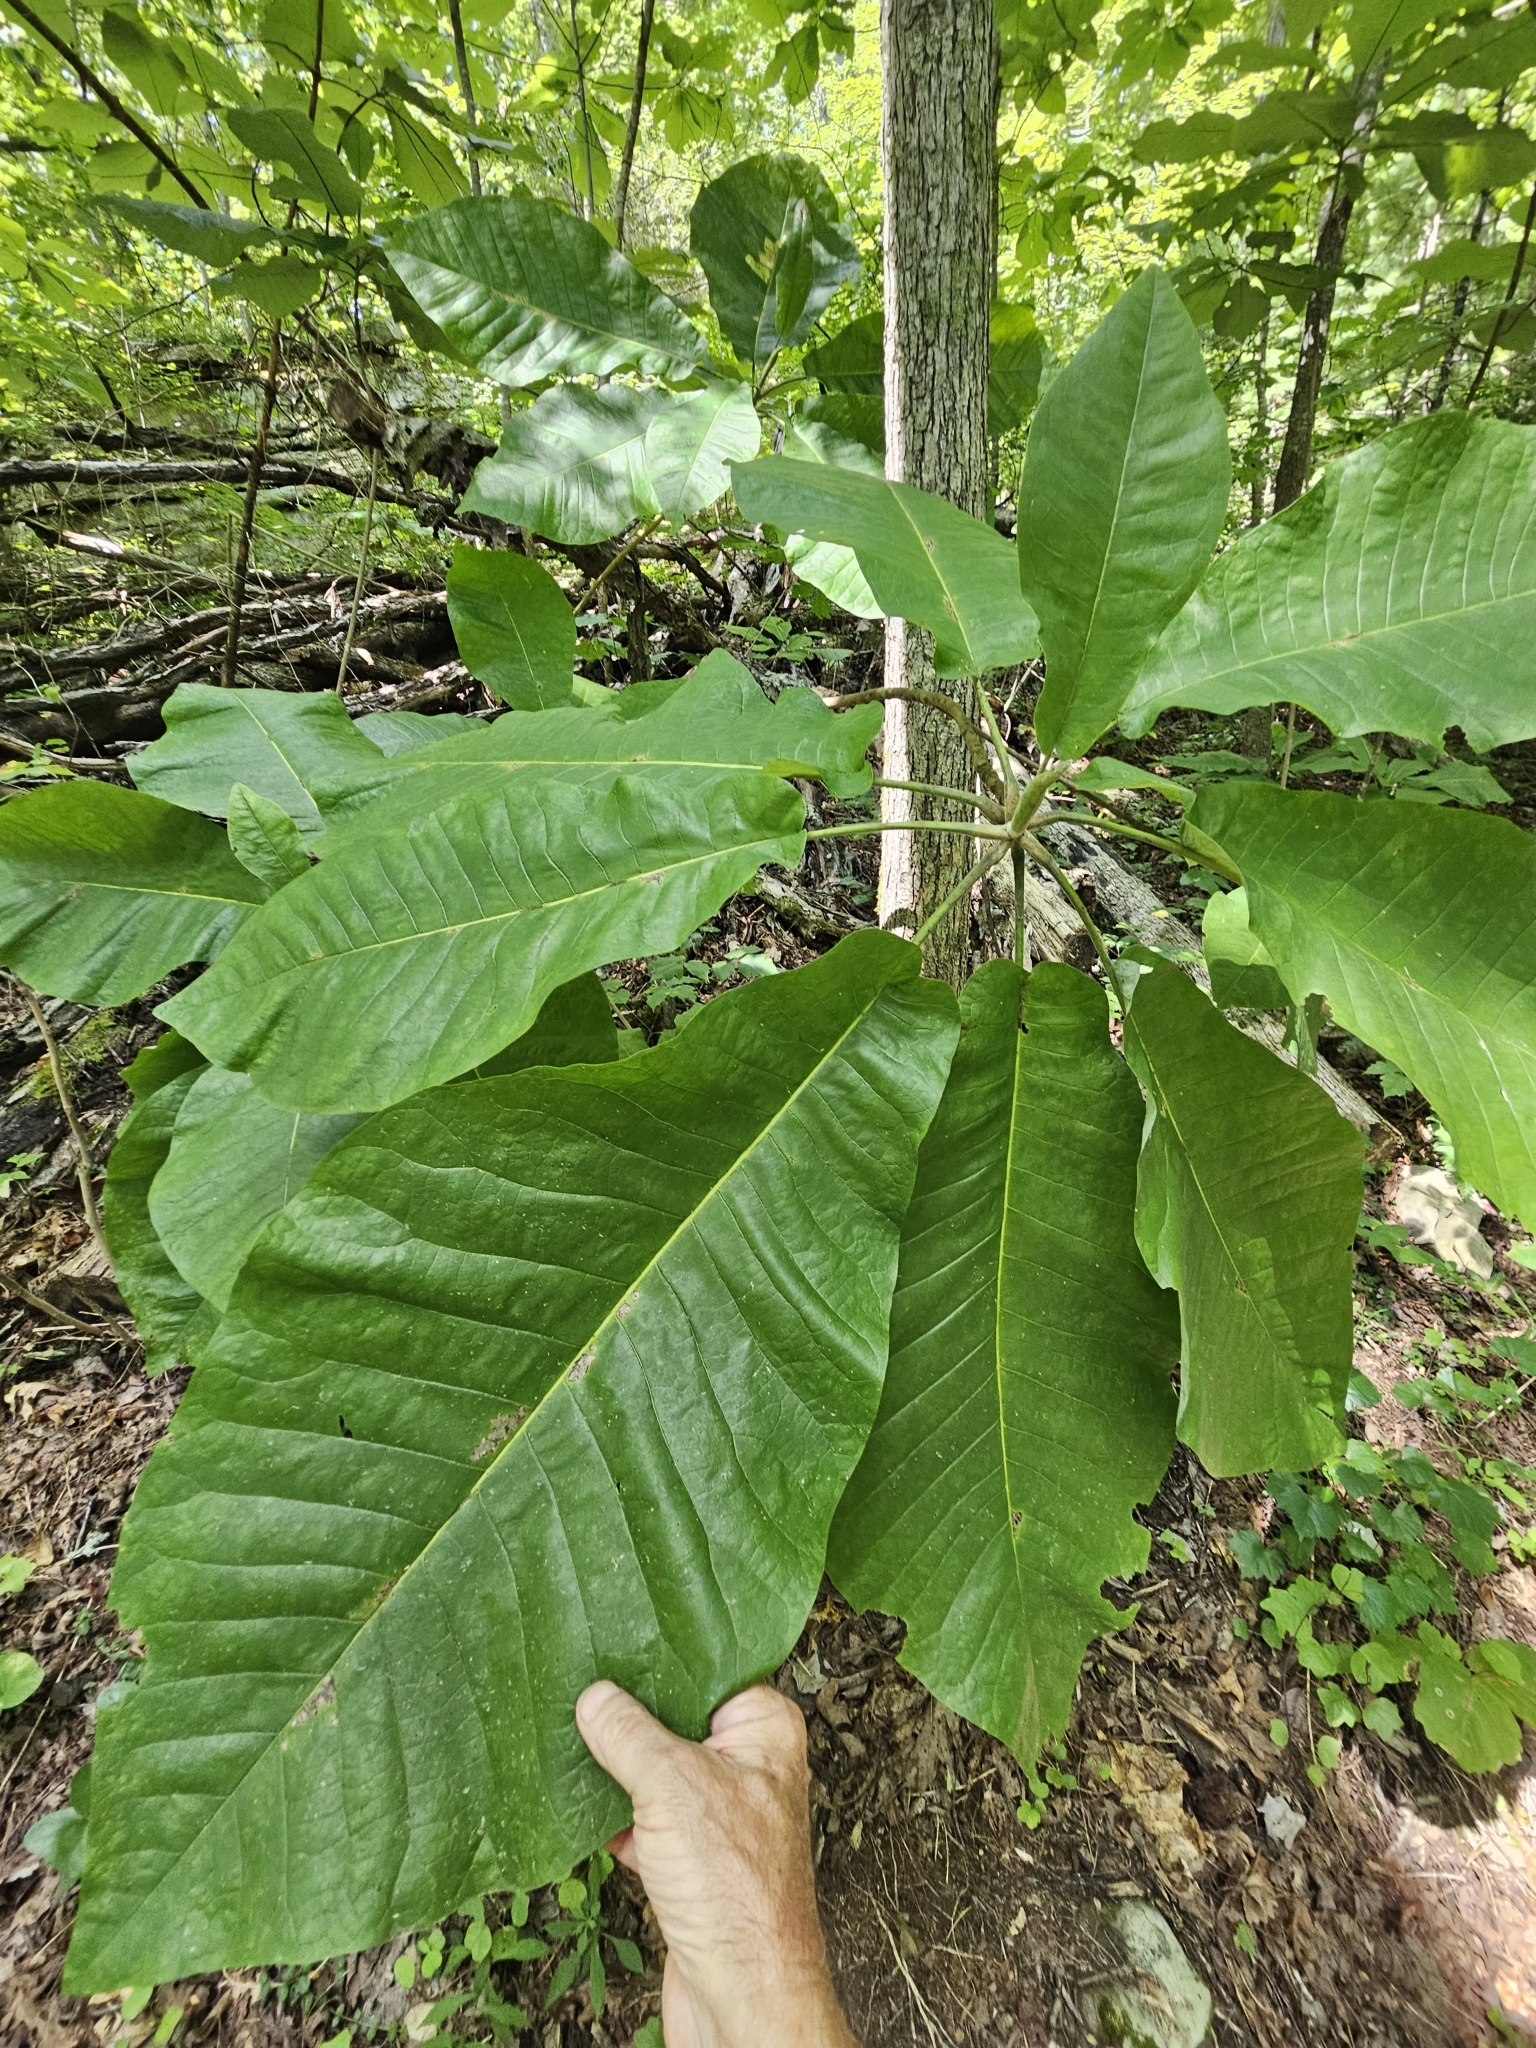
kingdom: Plantae
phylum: Tracheophyta
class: Magnoliopsida
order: Magnoliales
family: Magnoliaceae
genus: Magnolia
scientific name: Magnolia macrophylla
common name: Big-leaf magnolia
